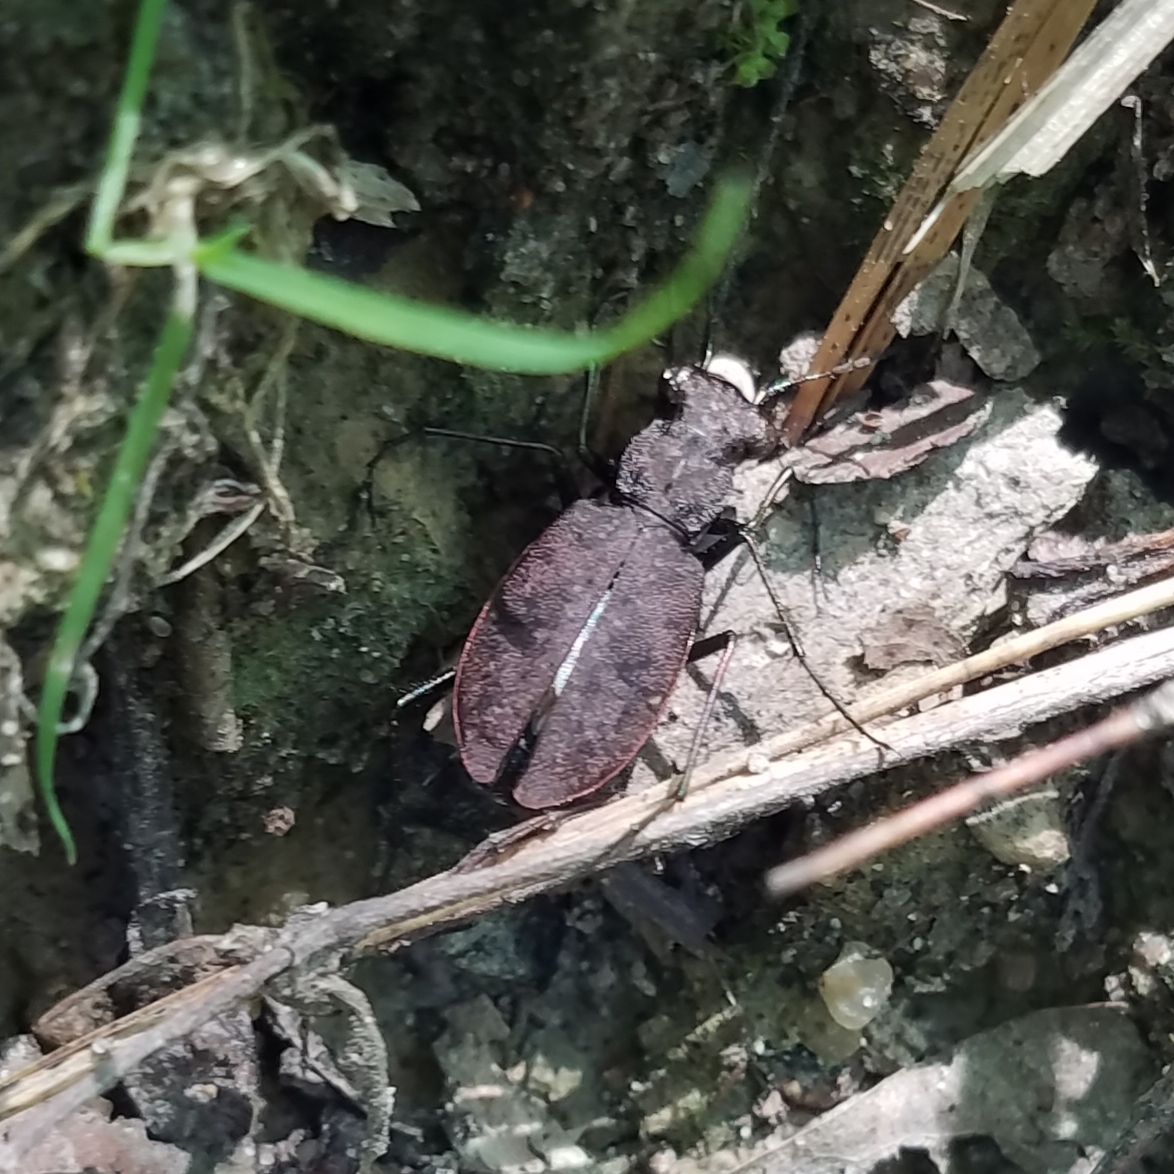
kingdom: Animalia
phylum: Arthropoda
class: Insecta
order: Coleoptera
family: Carabidae
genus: Cylindera
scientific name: Cylindera unipunctata
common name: One-spotted tiger beetle
